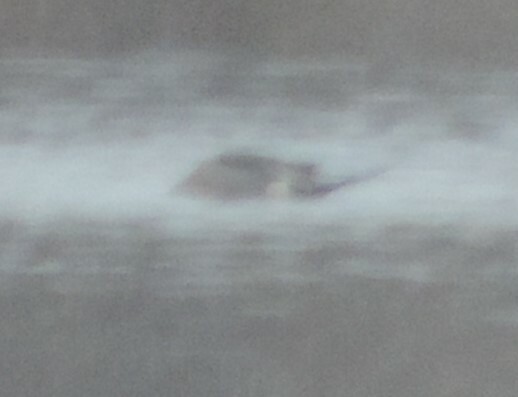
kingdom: Animalia
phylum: Chordata
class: Aves
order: Anseriformes
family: Anatidae
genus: Anas
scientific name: Anas acuta
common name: Northern pintail
